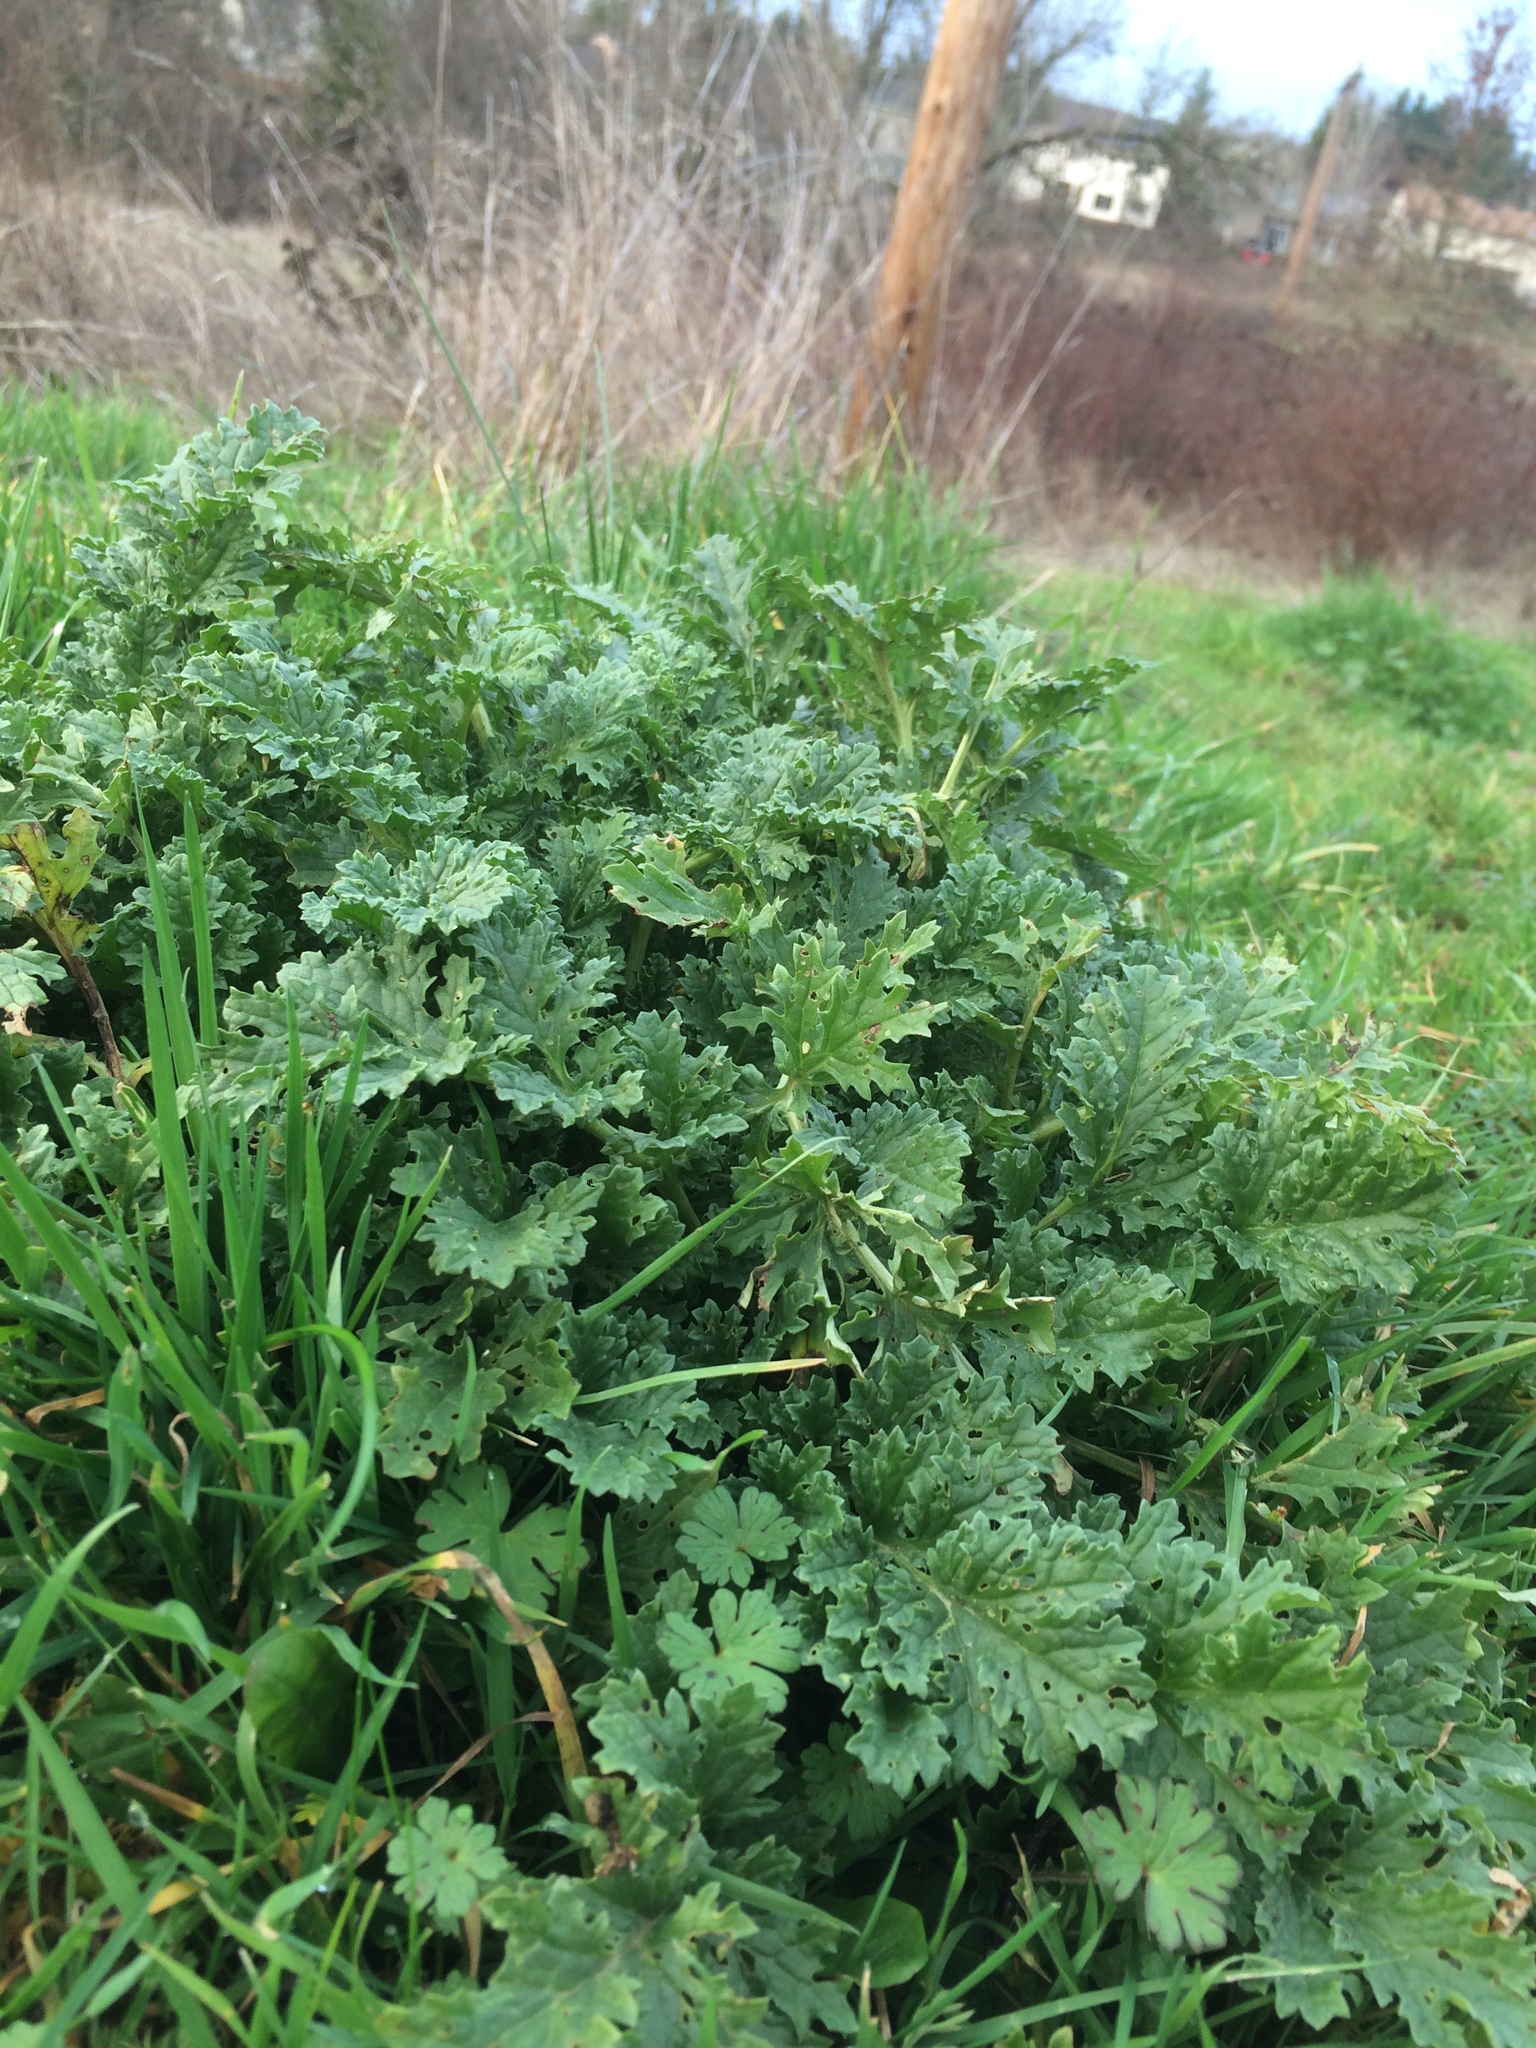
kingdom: Plantae
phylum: Tracheophyta
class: Magnoliopsida
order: Asterales
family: Asteraceae
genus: Jacobaea
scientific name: Jacobaea vulgaris
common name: Stinking willie
